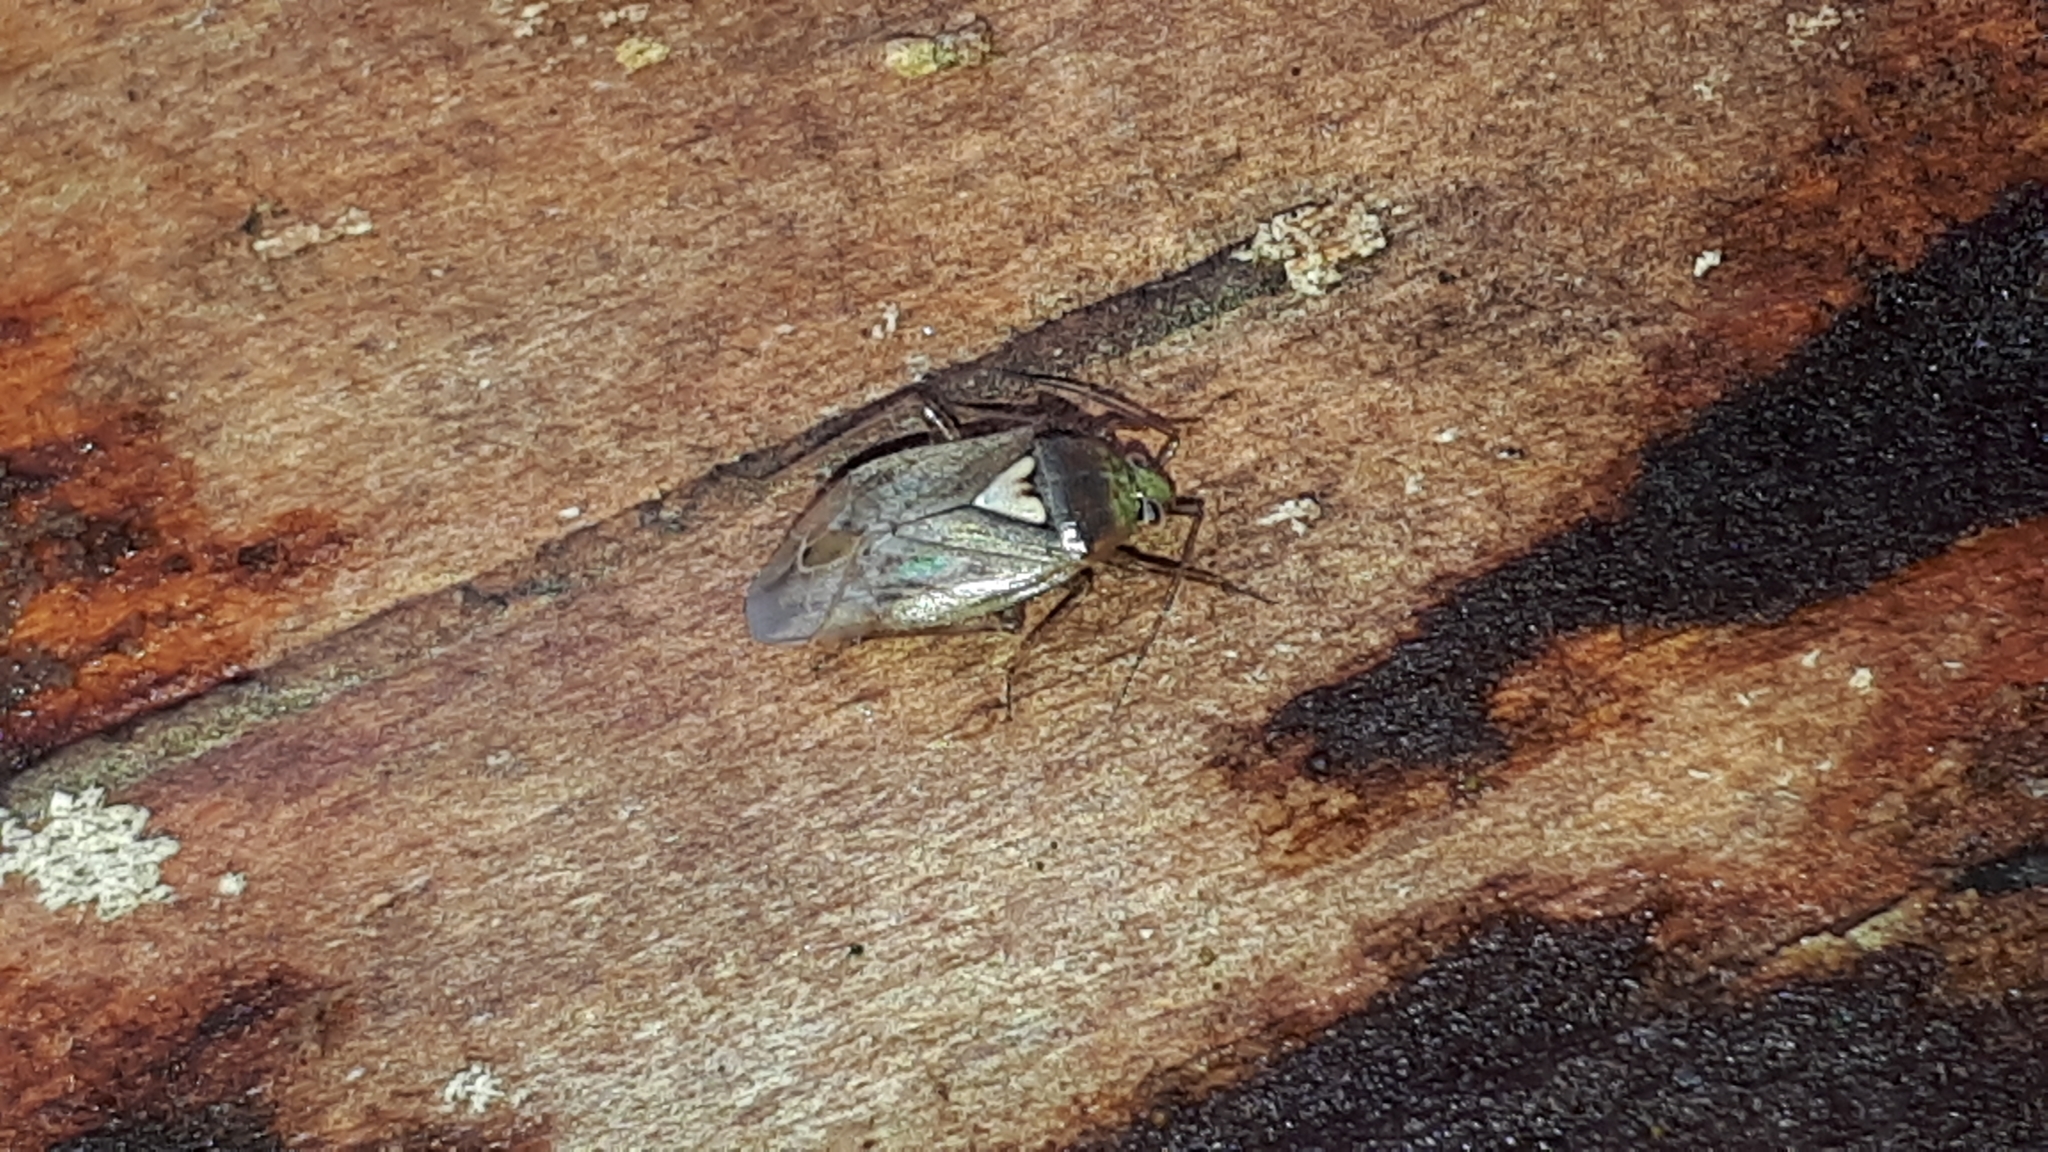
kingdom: Animalia
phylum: Arthropoda
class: Insecta
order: Hemiptera
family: Miridae
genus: Lygus
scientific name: Lygus rugulipennis
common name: European tarnished plant bug
